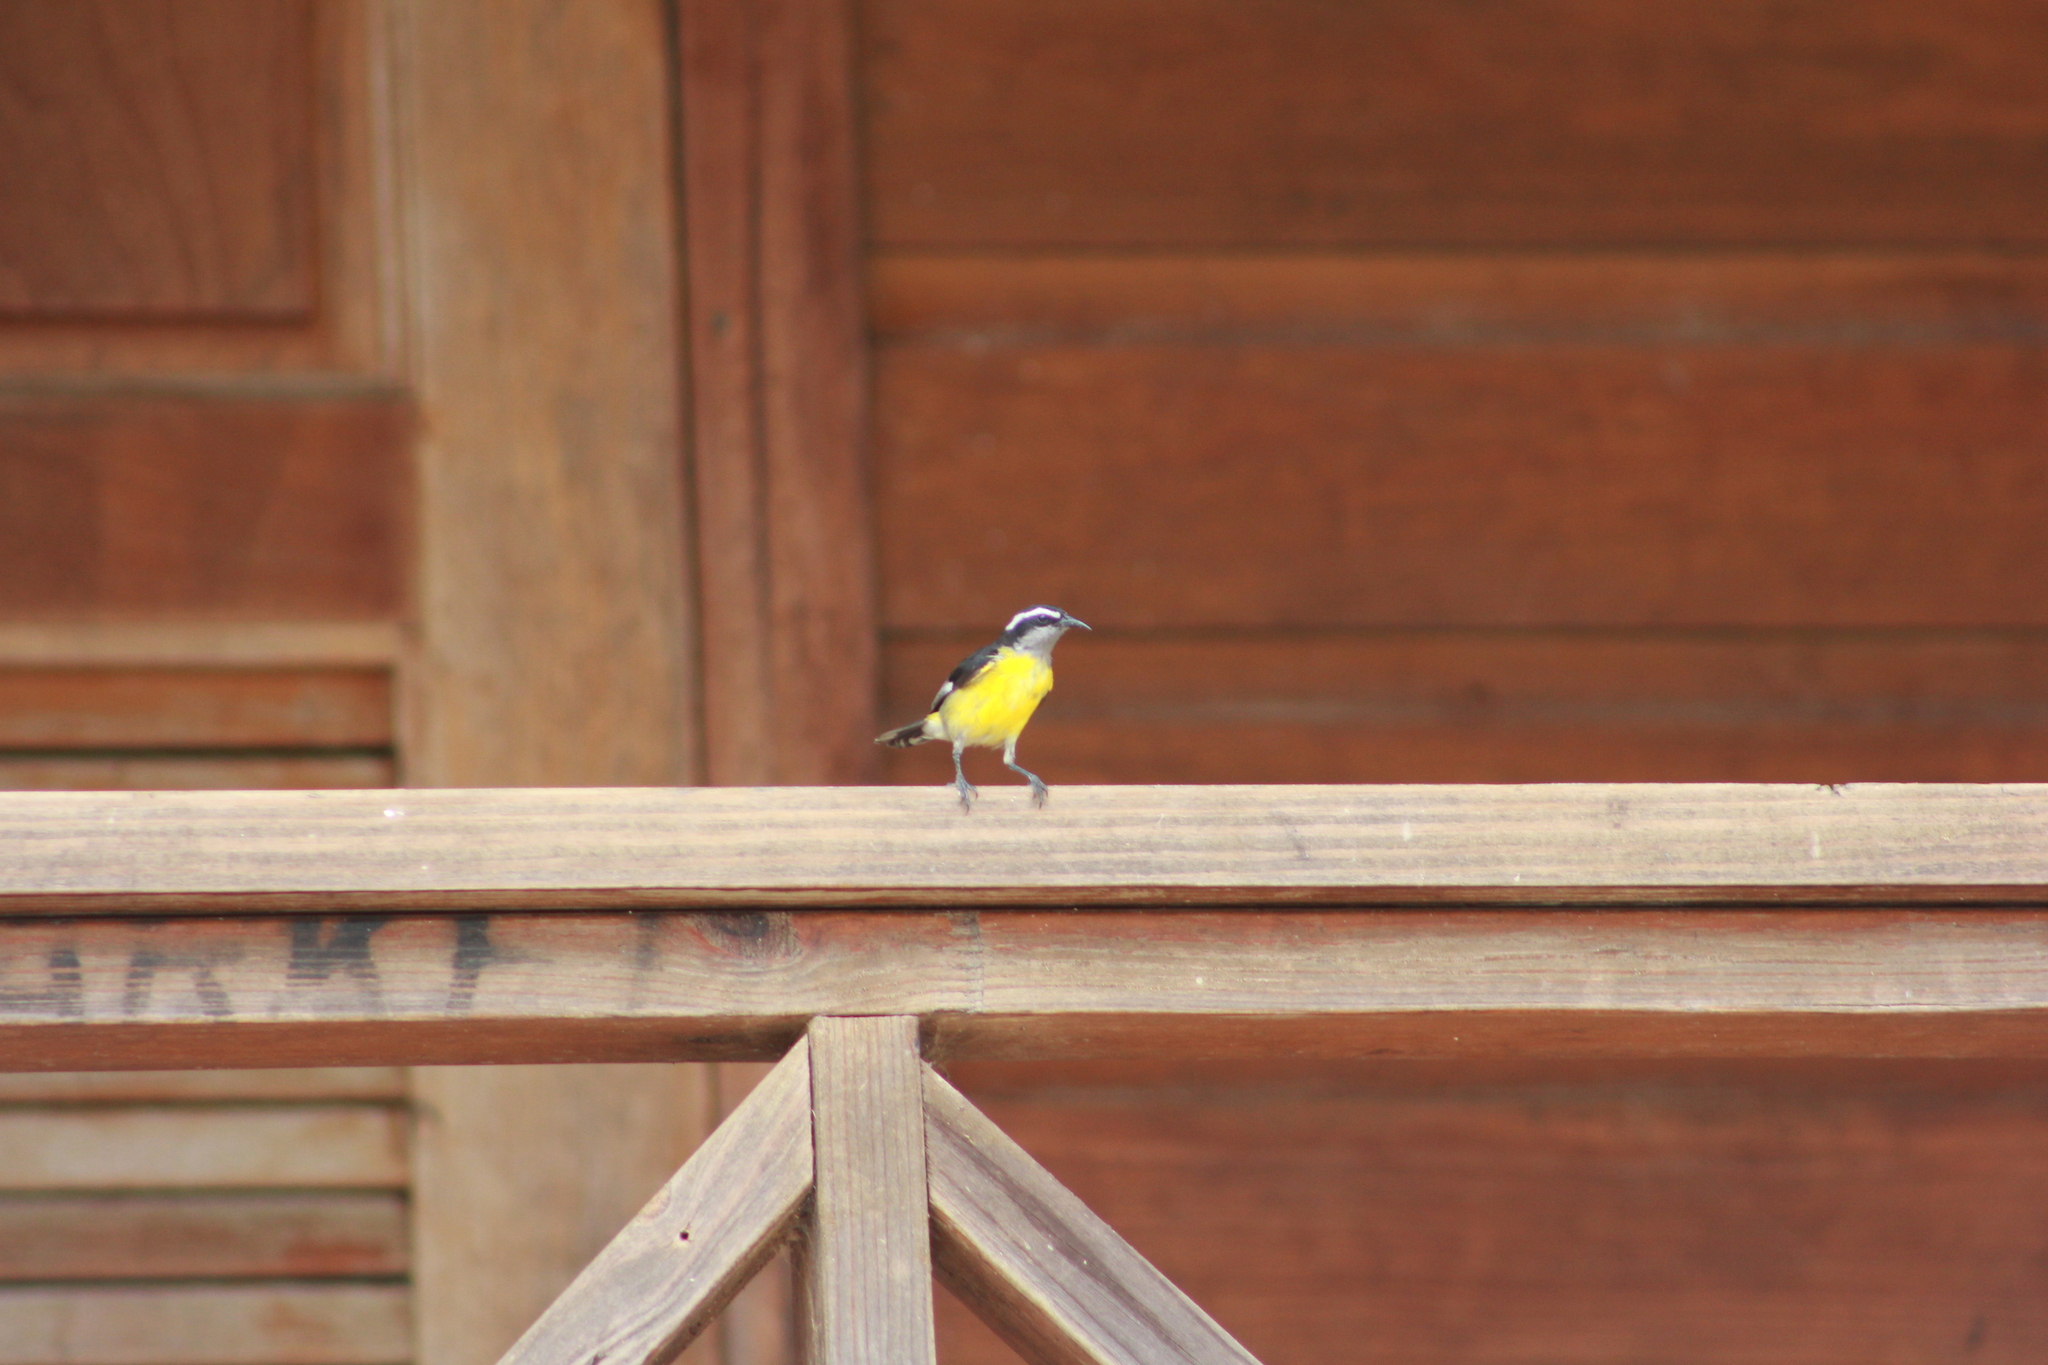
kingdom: Animalia
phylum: Chordata
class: Aves
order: Passeriformes
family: Thraupidae
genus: Coereba
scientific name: Coereba flaveola
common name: Bananaquit
